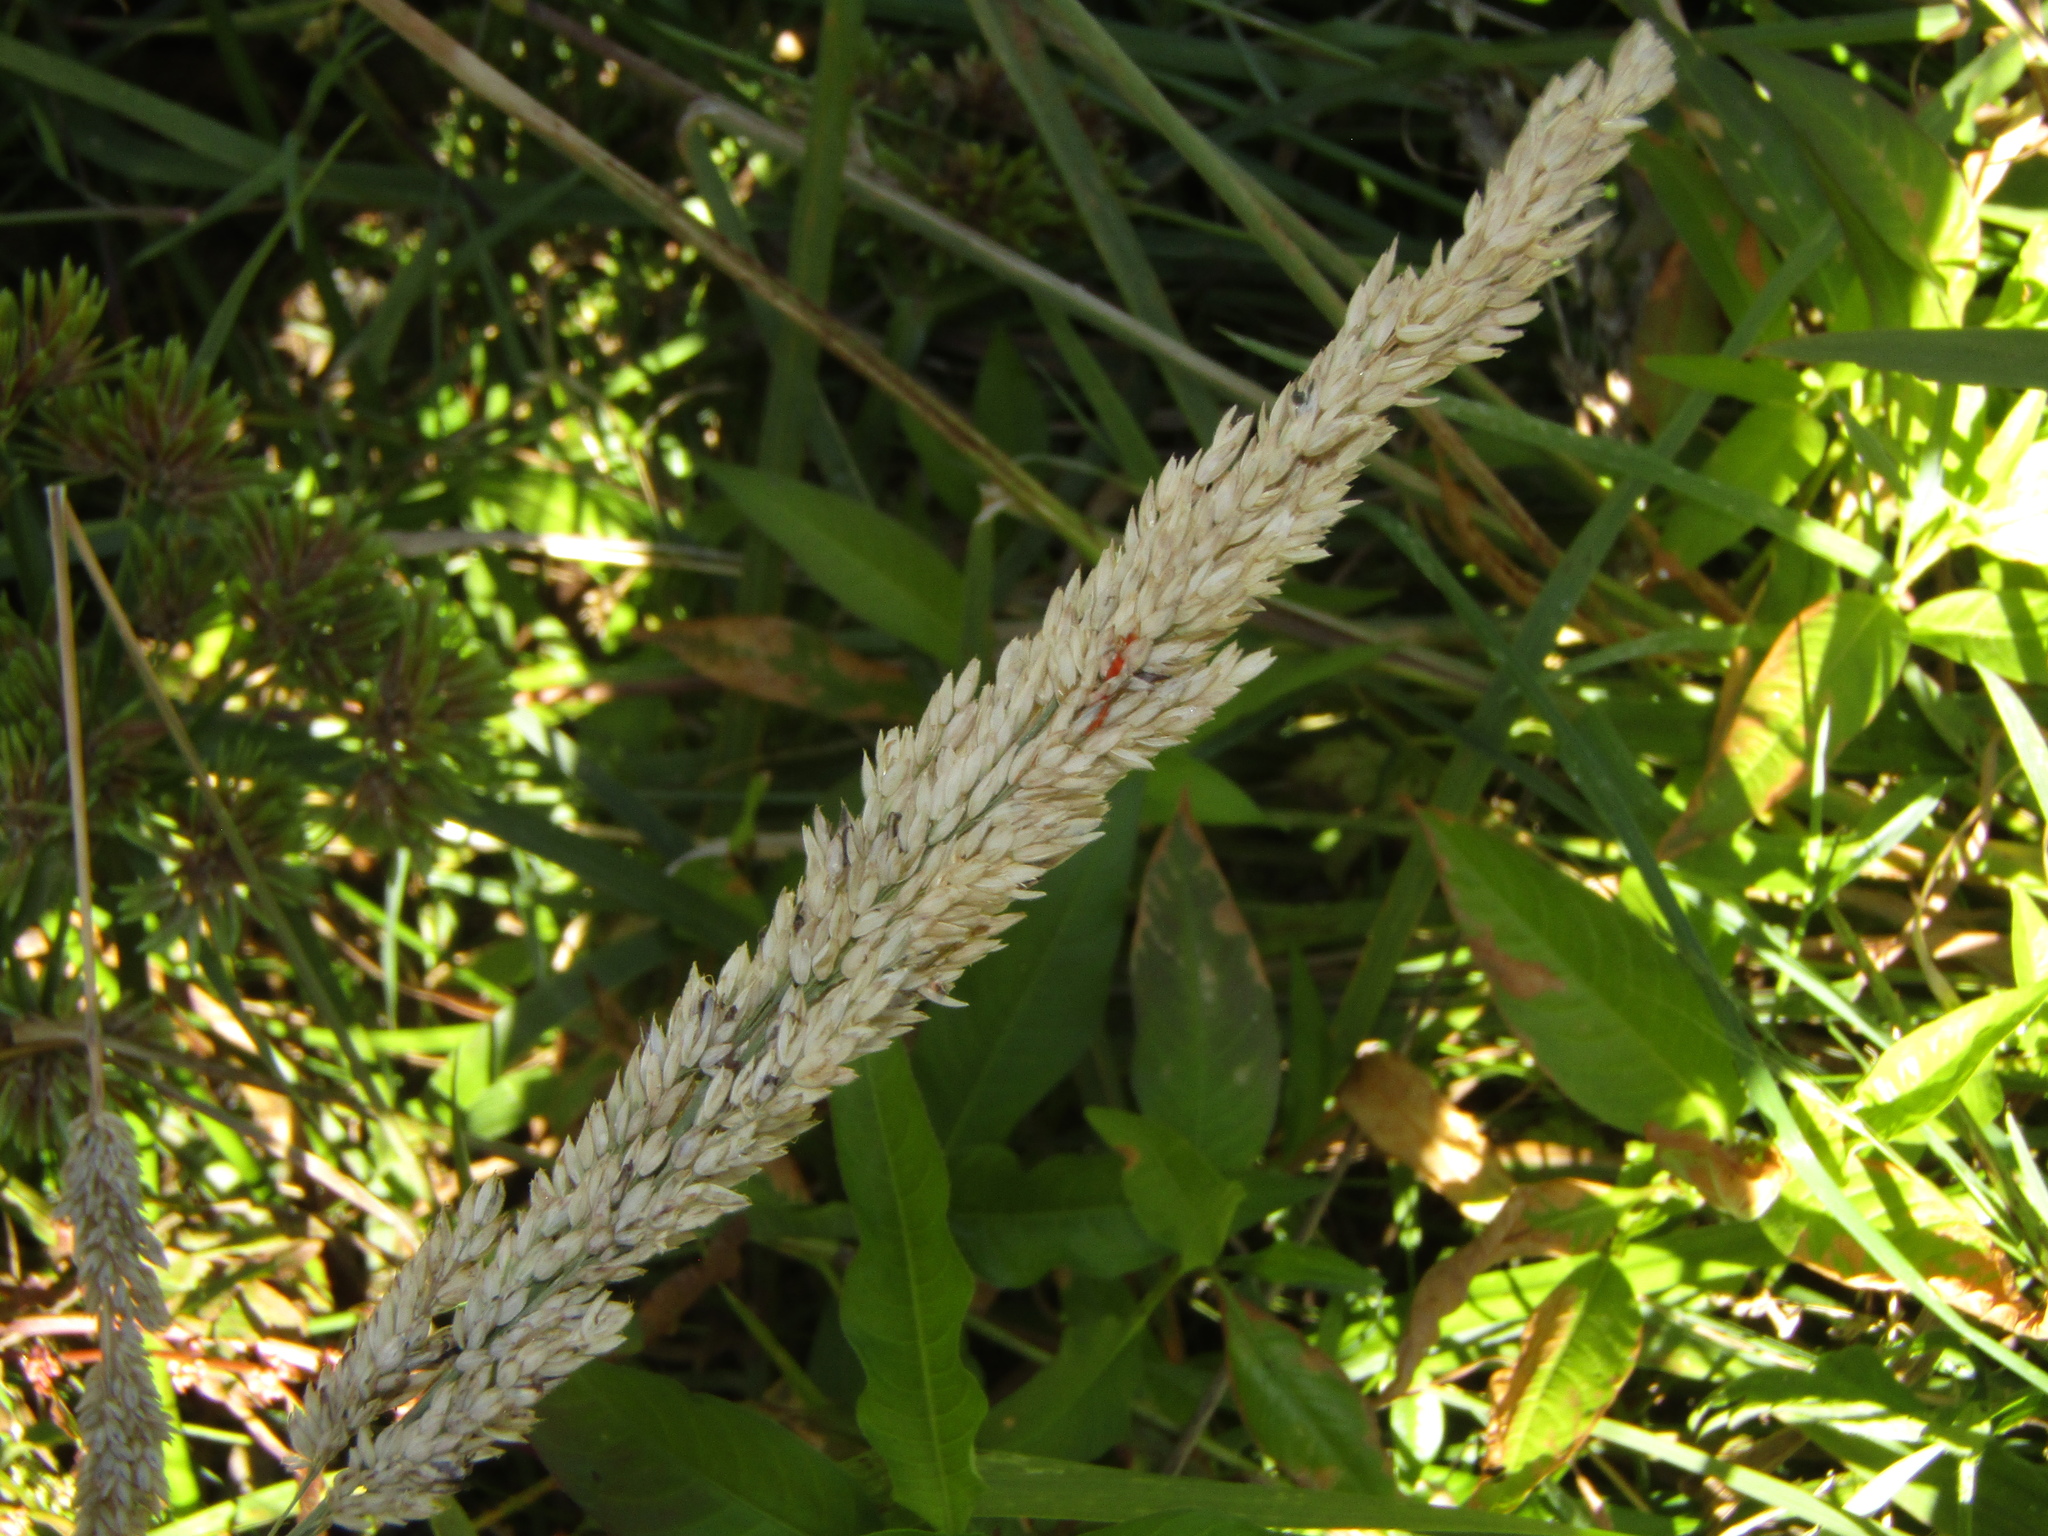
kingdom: Plantae
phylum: Tracheophyta
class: Liliopsida
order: Poales
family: Poaceae
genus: Holcus
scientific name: Holcus lanatus
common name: Yorkshire-fog
